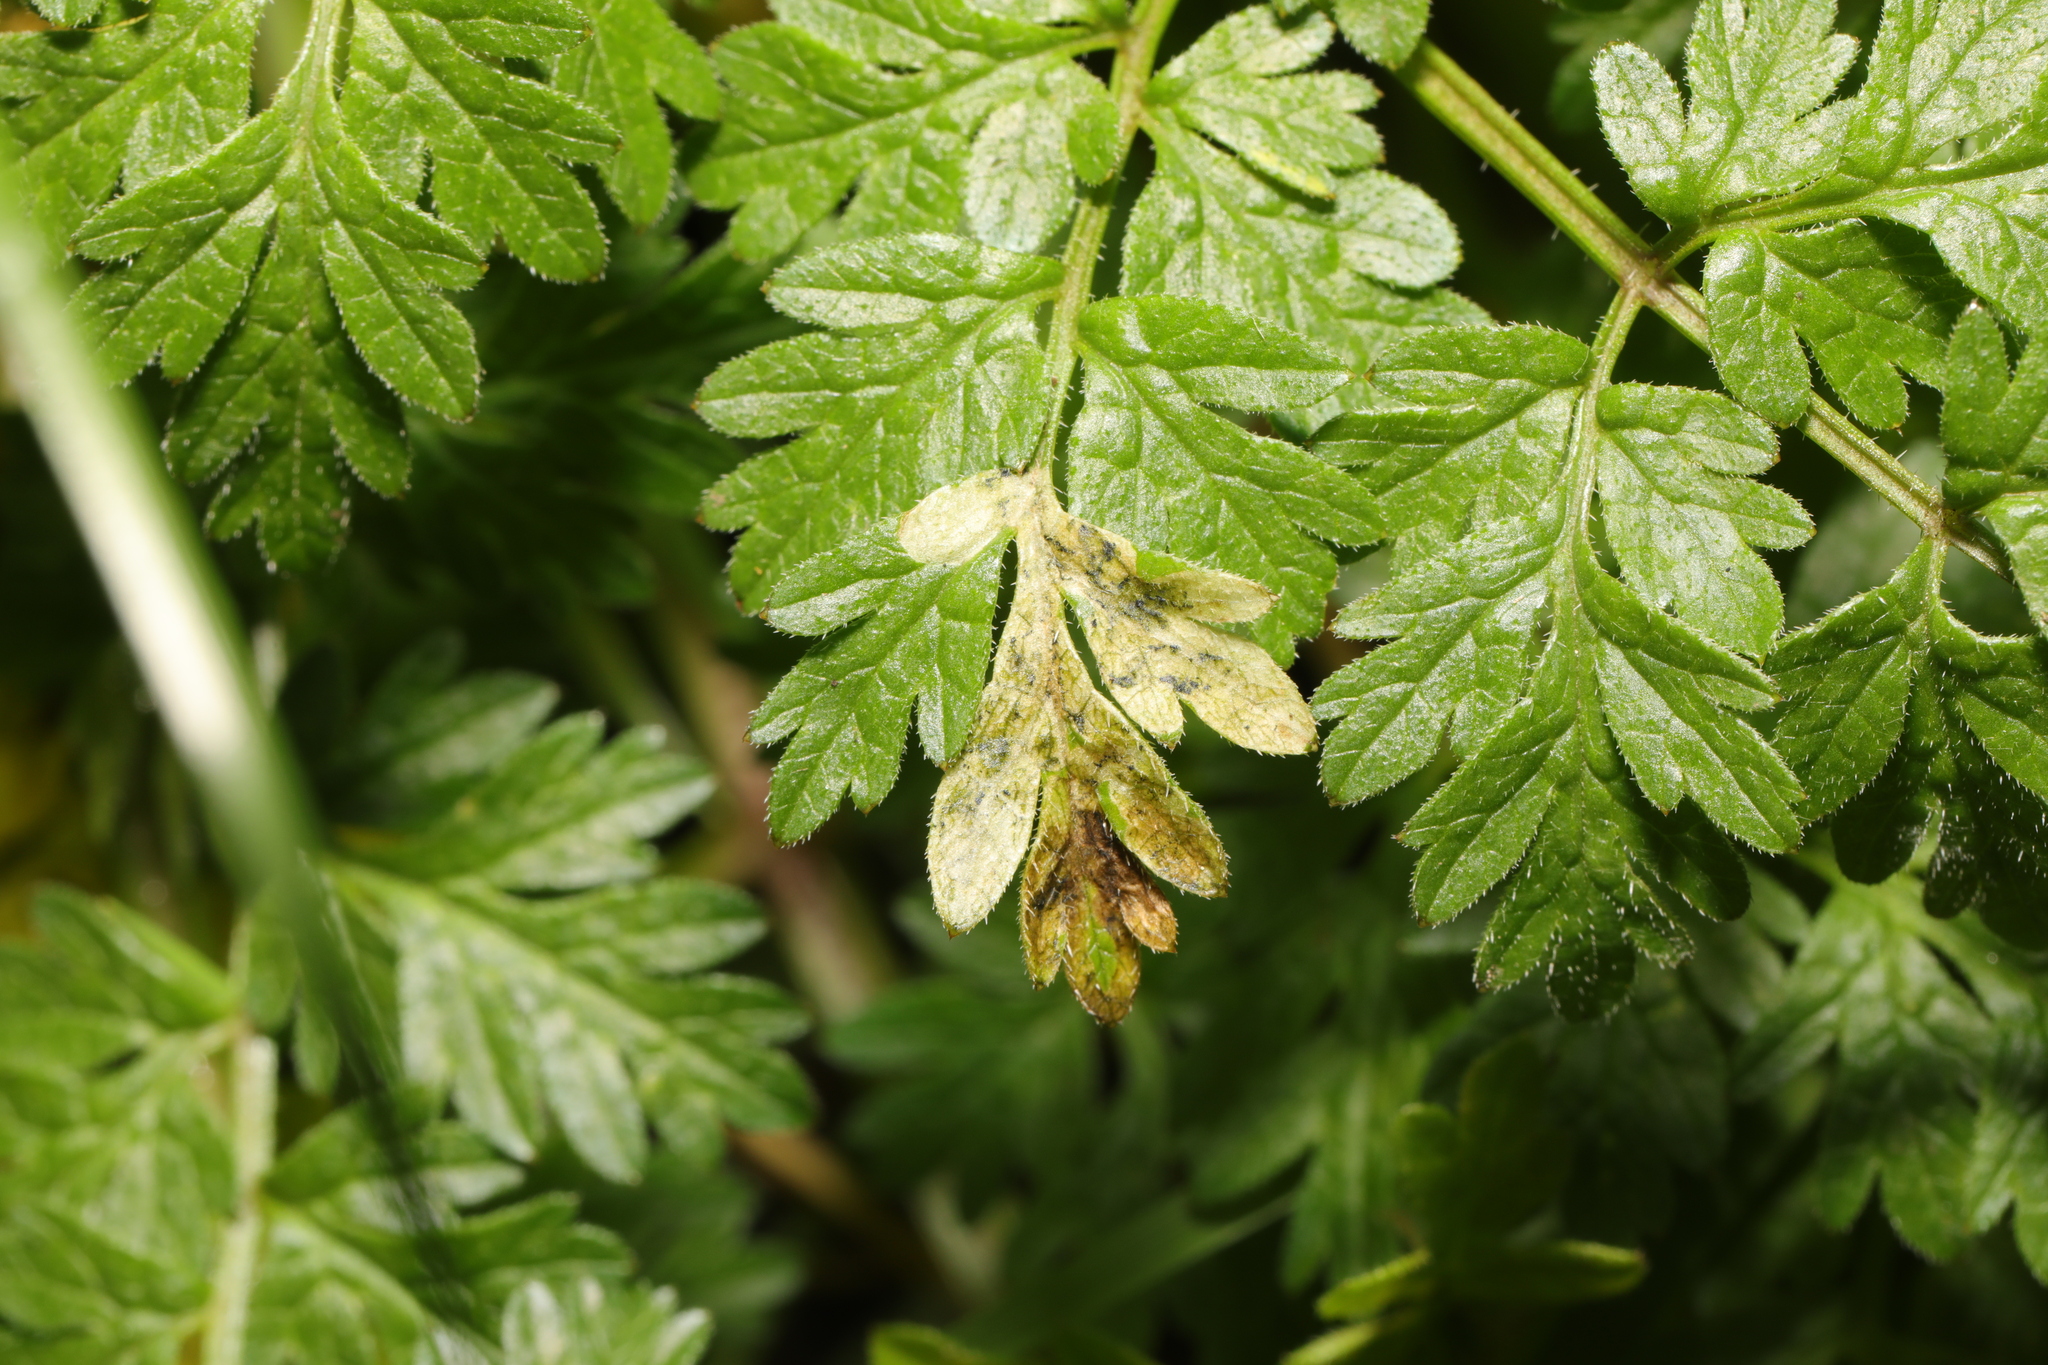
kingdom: Animalia
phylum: Arthropoda
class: Insecta
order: Diptera
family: Agromyzidae
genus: Phytomyza
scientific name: Phytomyza chaerophylli
